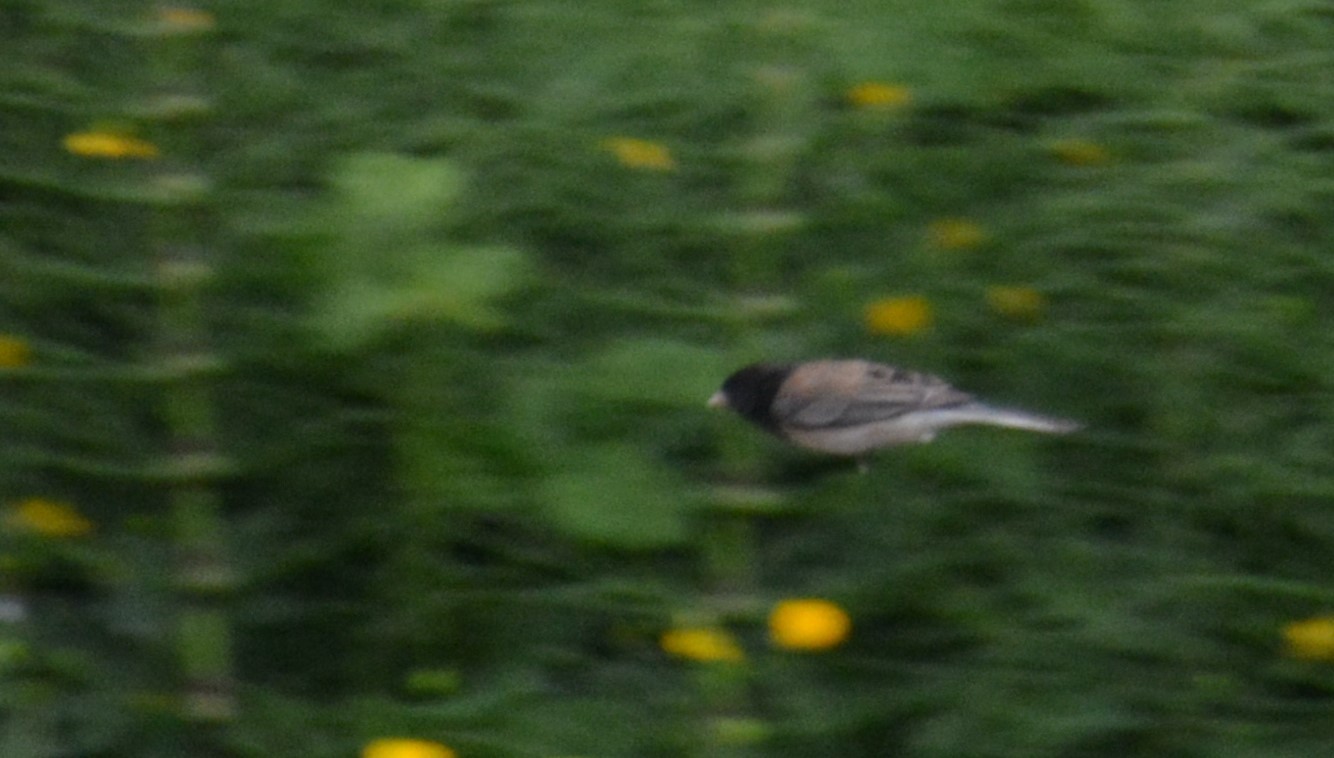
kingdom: Animalia
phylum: Chordata
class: Aves
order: Passeriformes
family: Passerellidae
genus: Junco
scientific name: Junco hyemalis
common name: Dark-eyed junco
